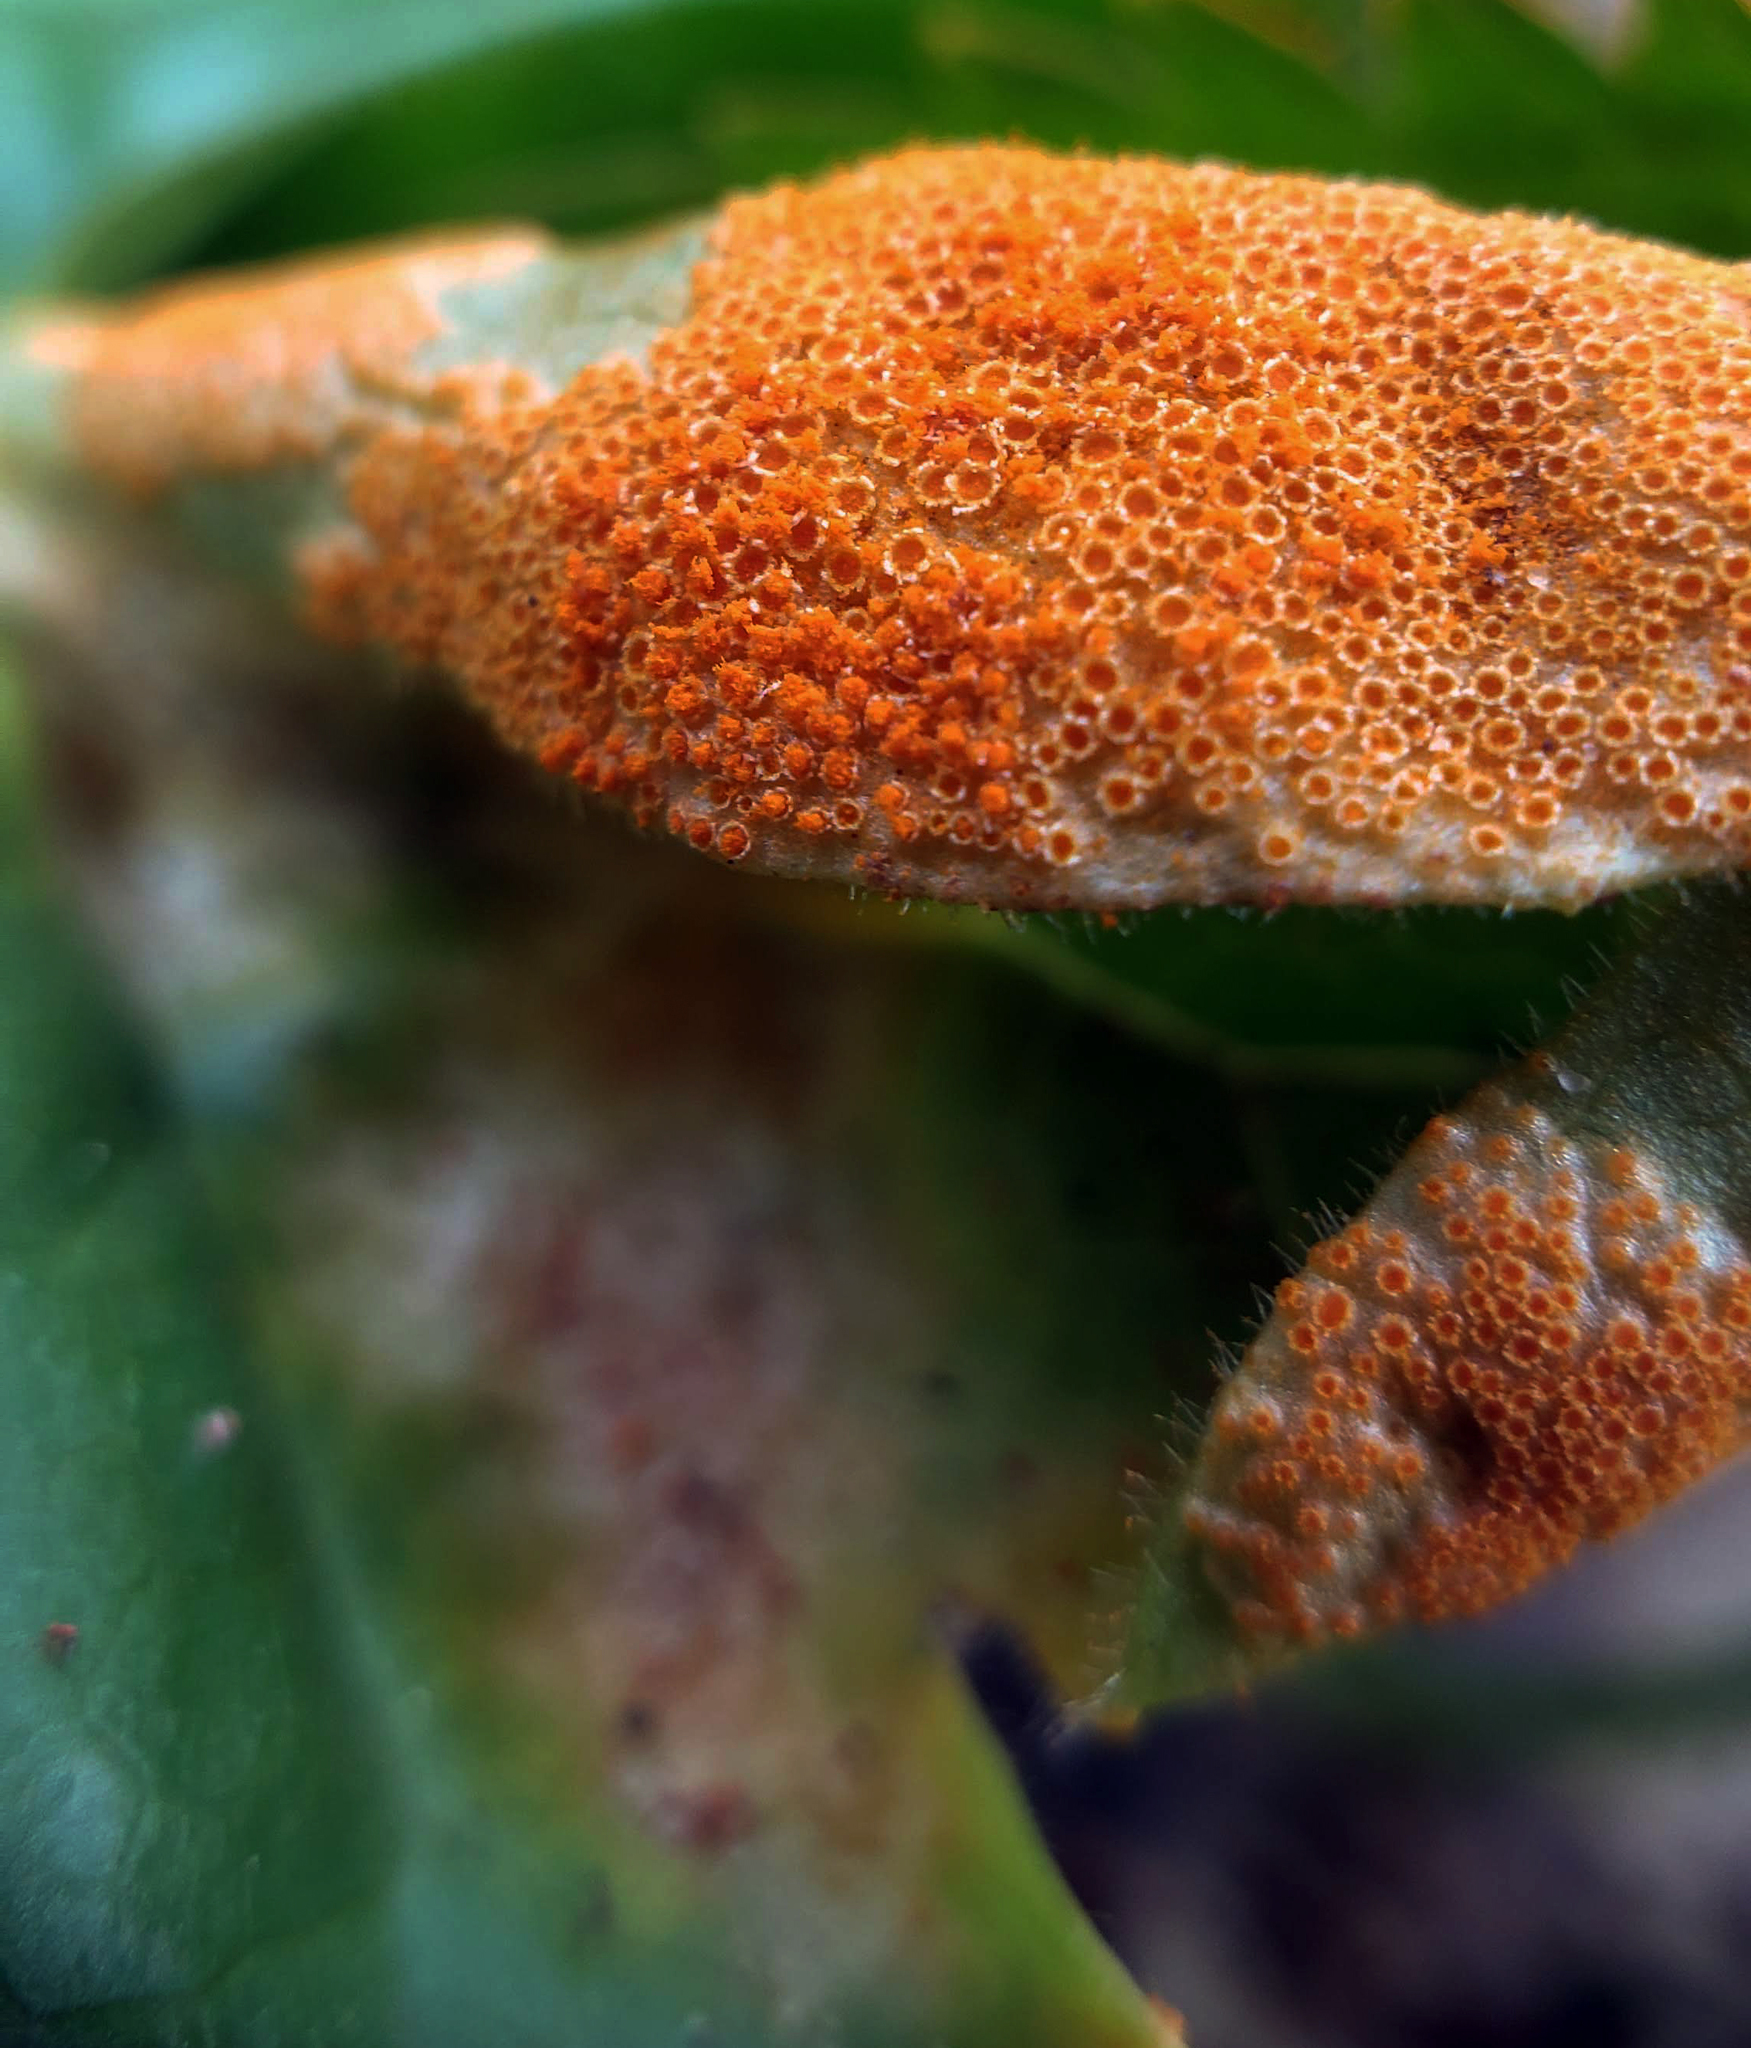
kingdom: Fungi
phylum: Basidiomycota
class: Pucciniomycetes
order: Pucciniales
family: Pucciniaceae
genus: Puccinia
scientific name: Puccinia podophylli
